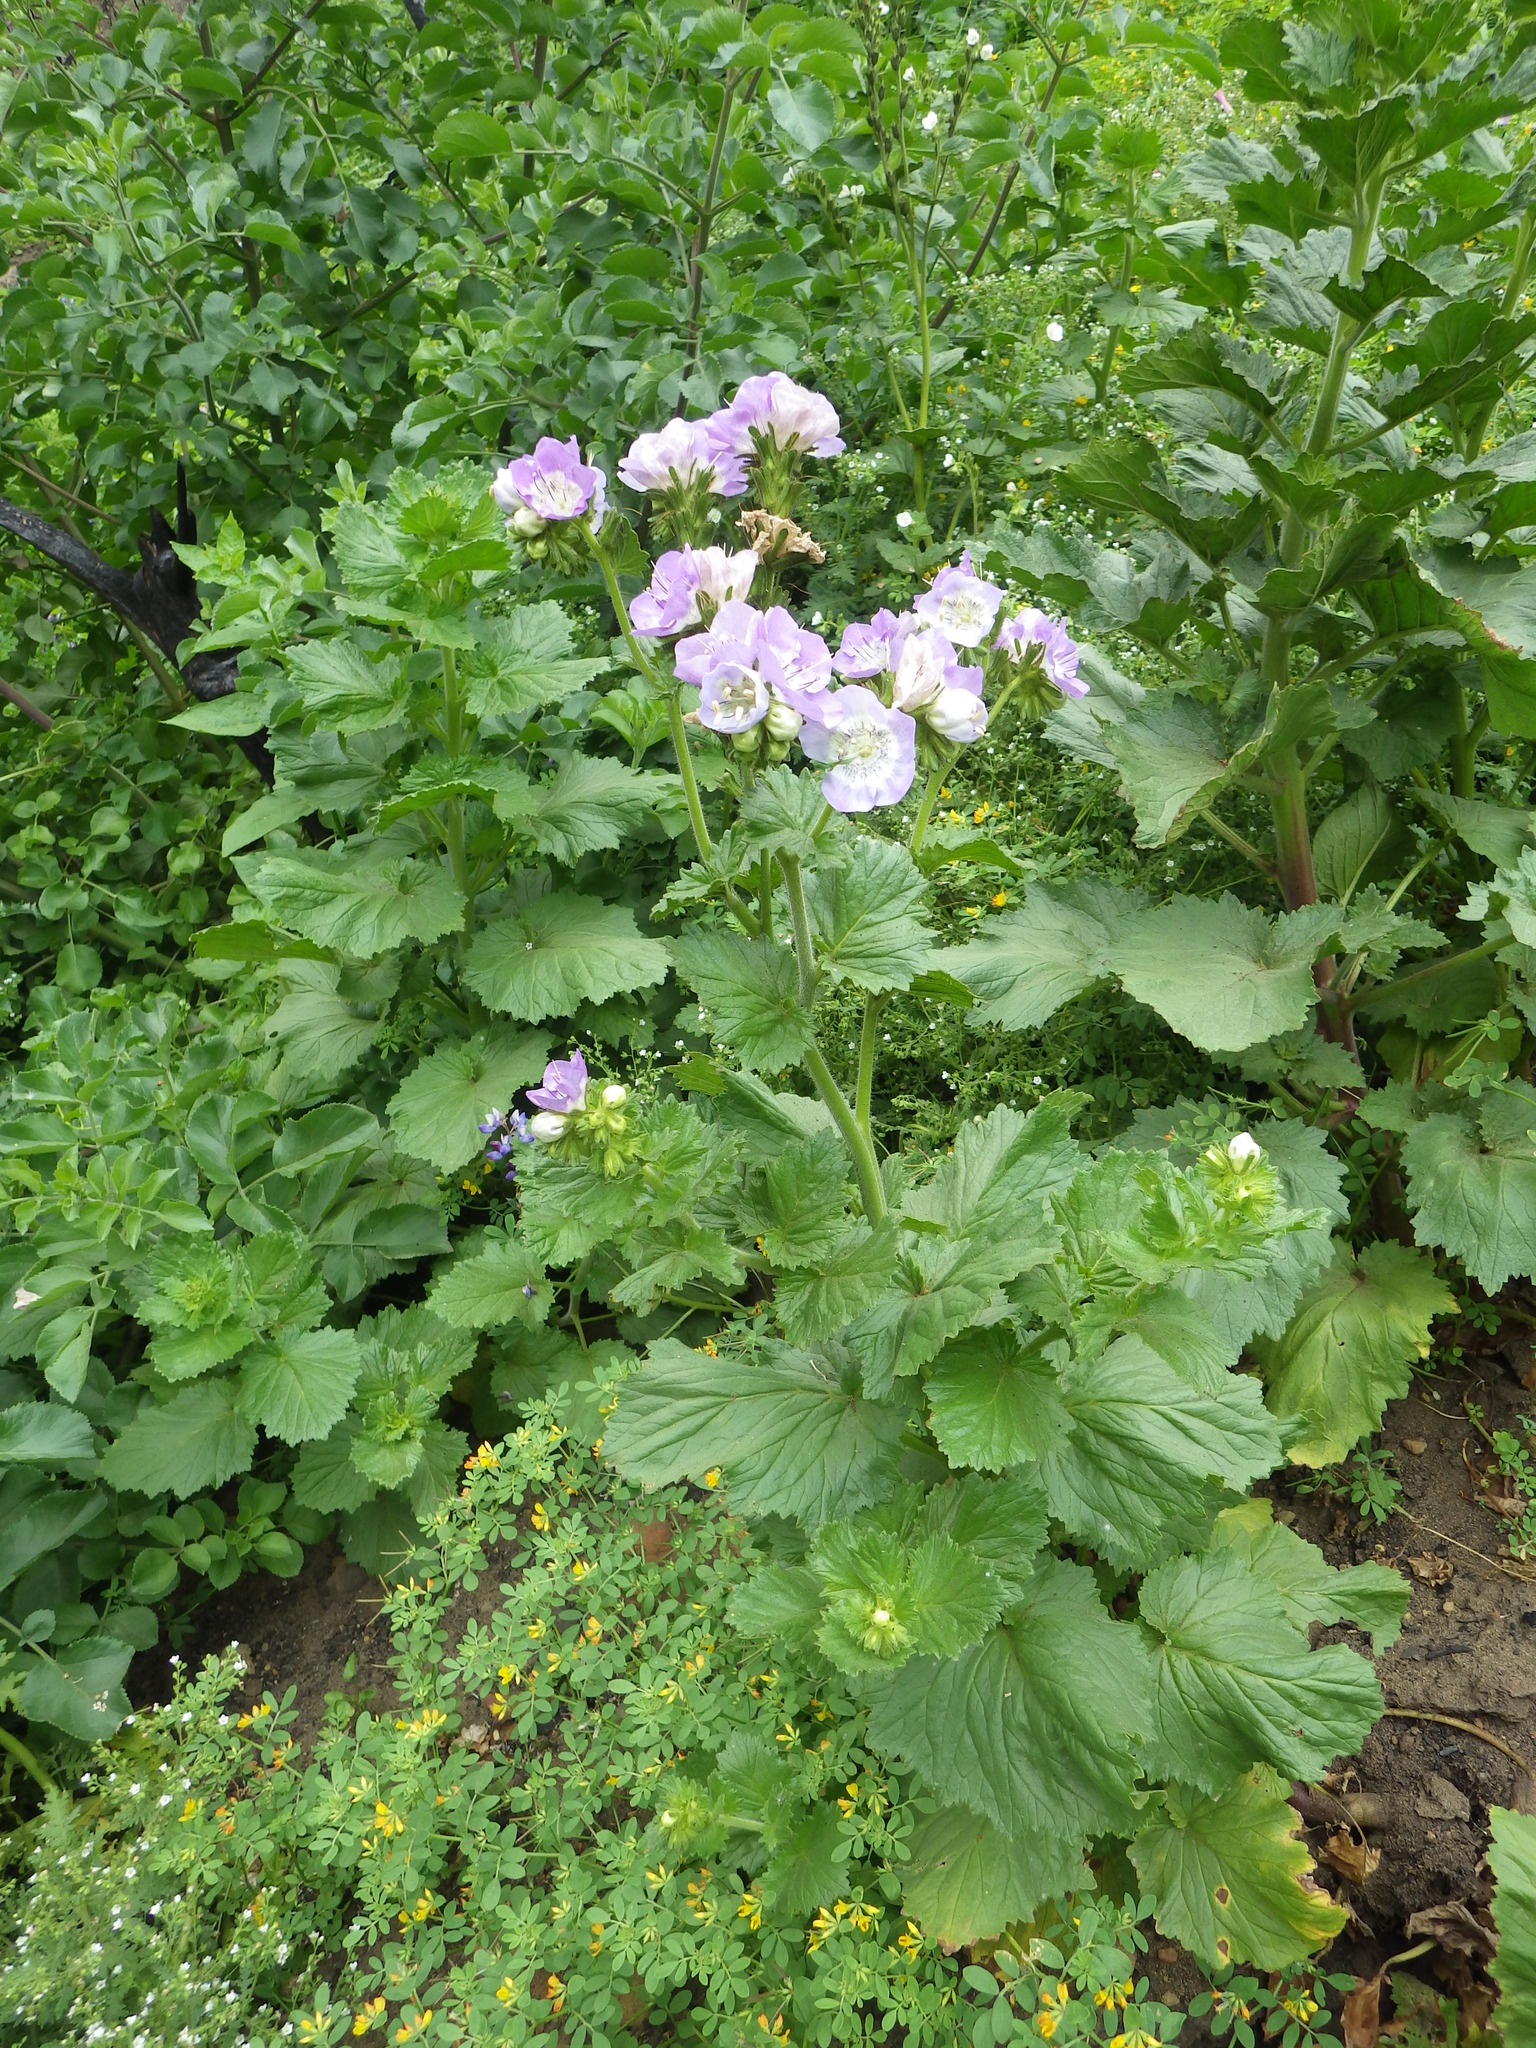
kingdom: Plantae
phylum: Tracheophyta
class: Magnoliopsida
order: Boraginales
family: Hydrophyllaceae
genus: Phacelia
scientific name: Phacelia grandiflora
